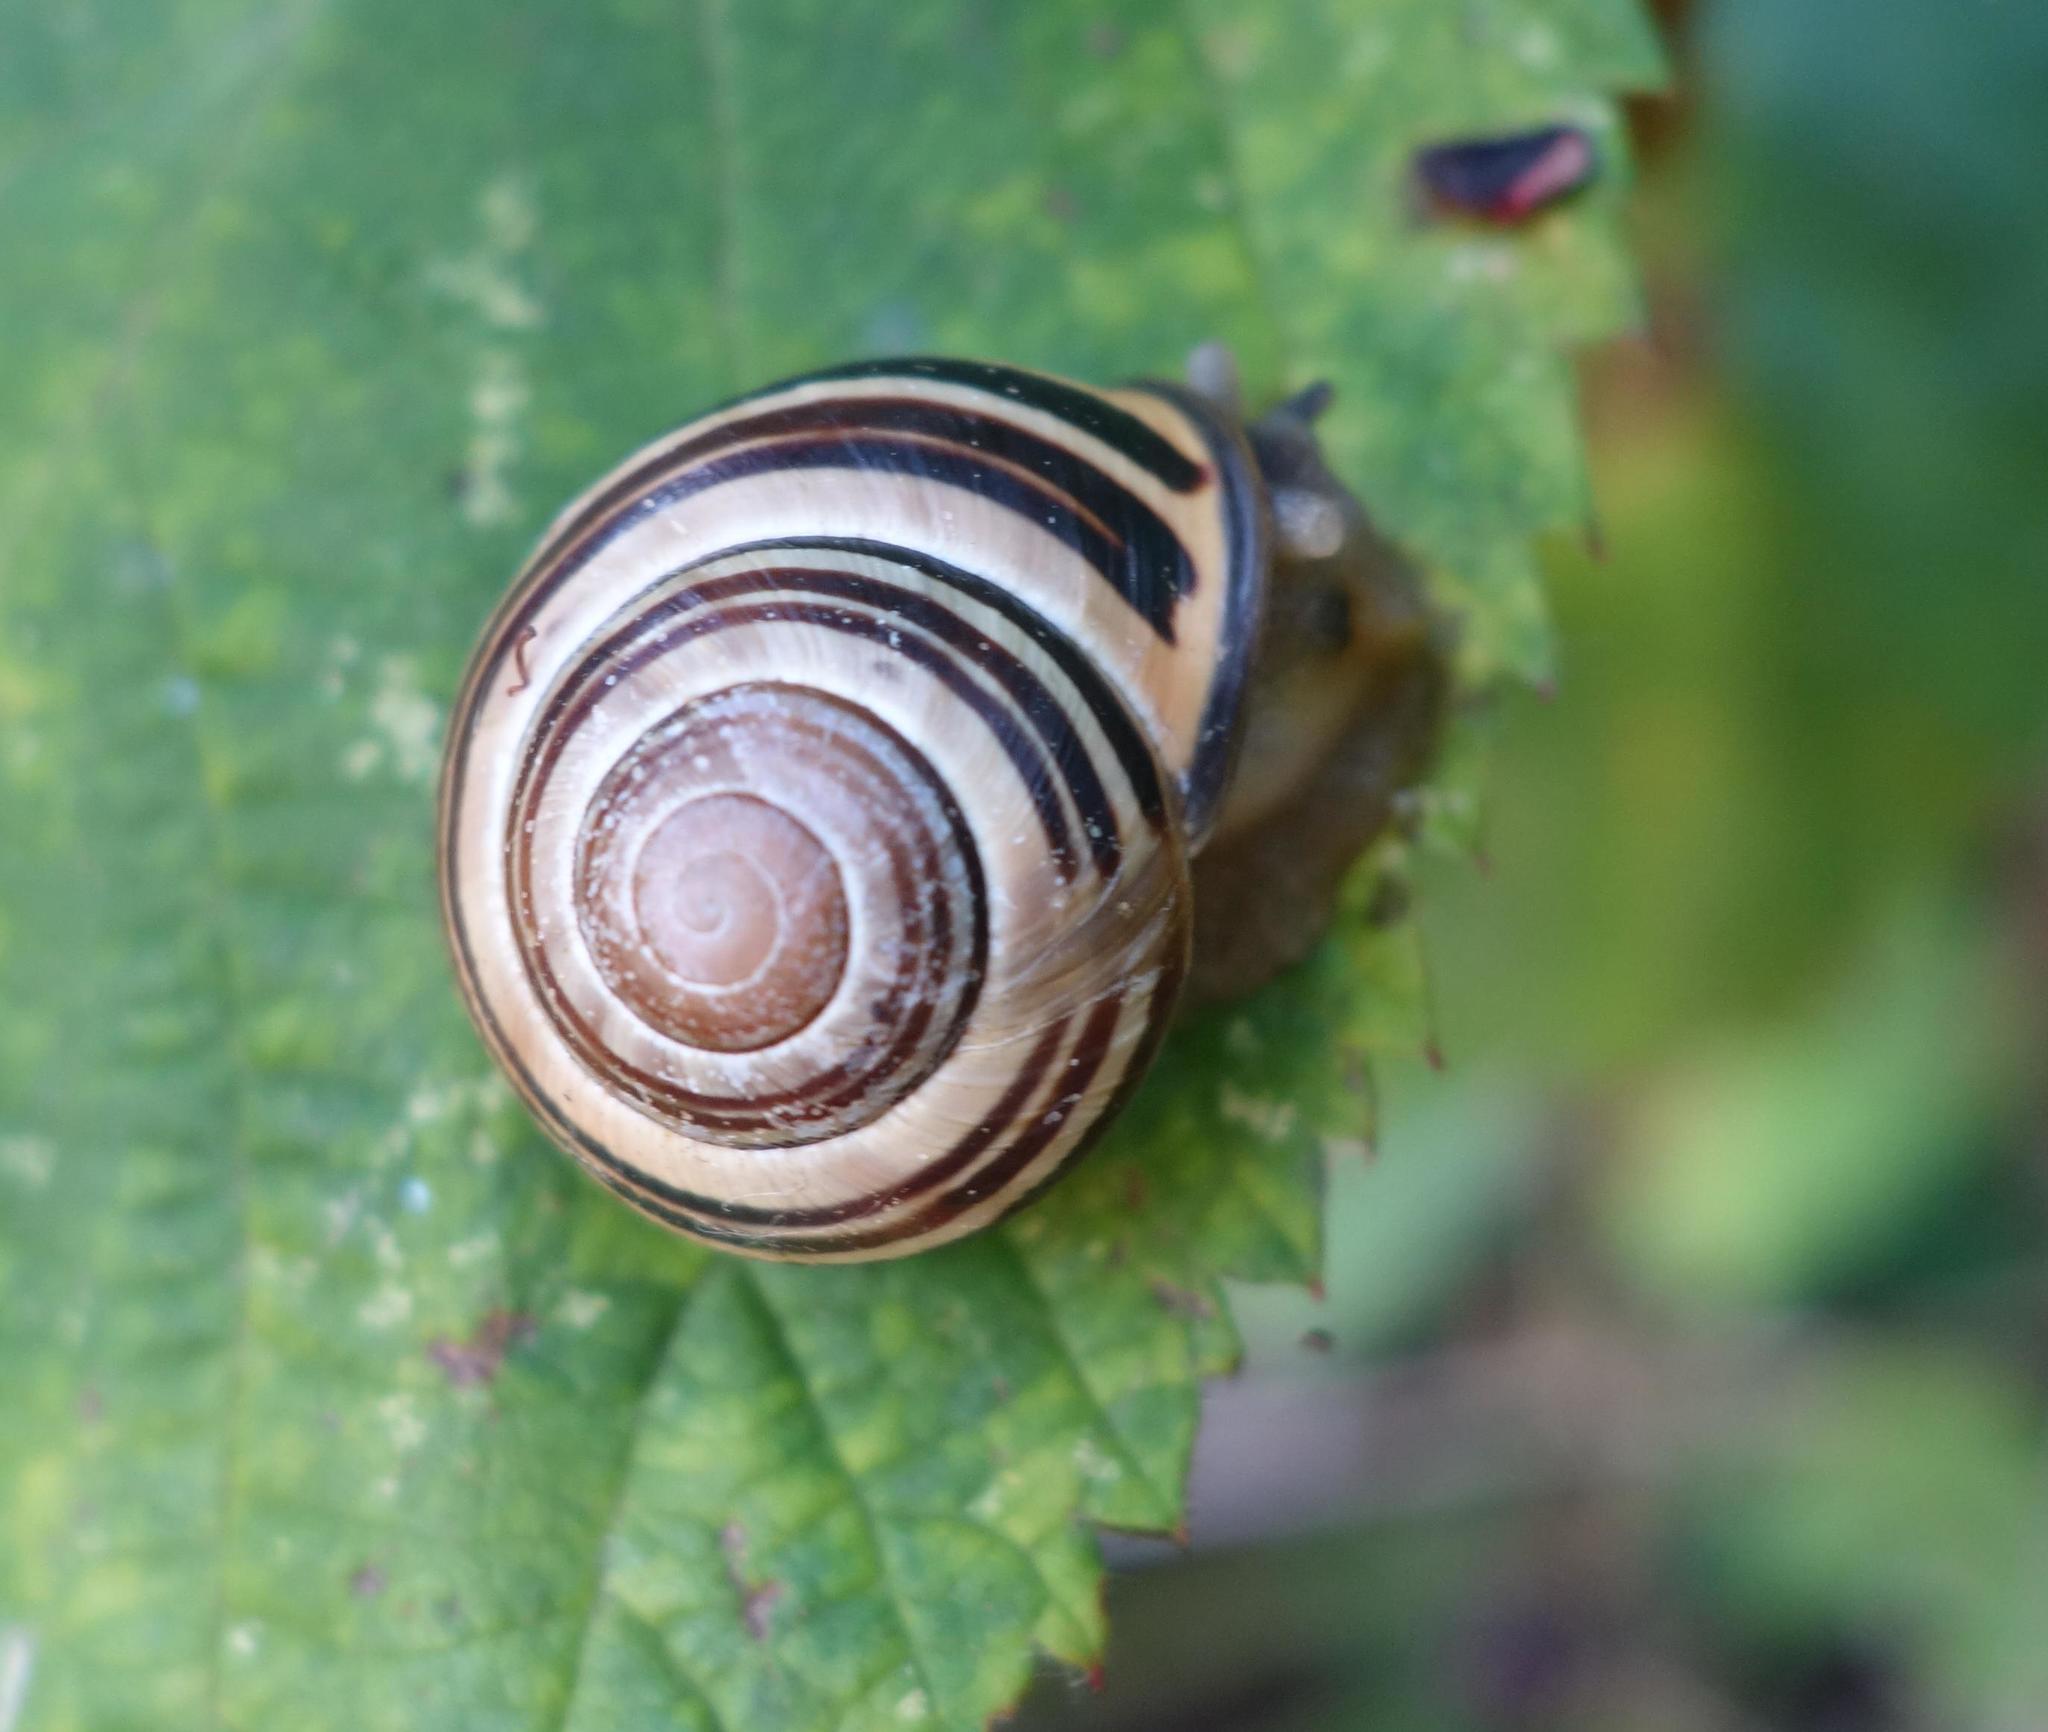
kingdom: Animalia
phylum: Mollusca
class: Gastropoda
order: Stylommatophora
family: Helicidae
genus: Cepaea
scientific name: Cepaea nemoralis
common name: Grovesnail
